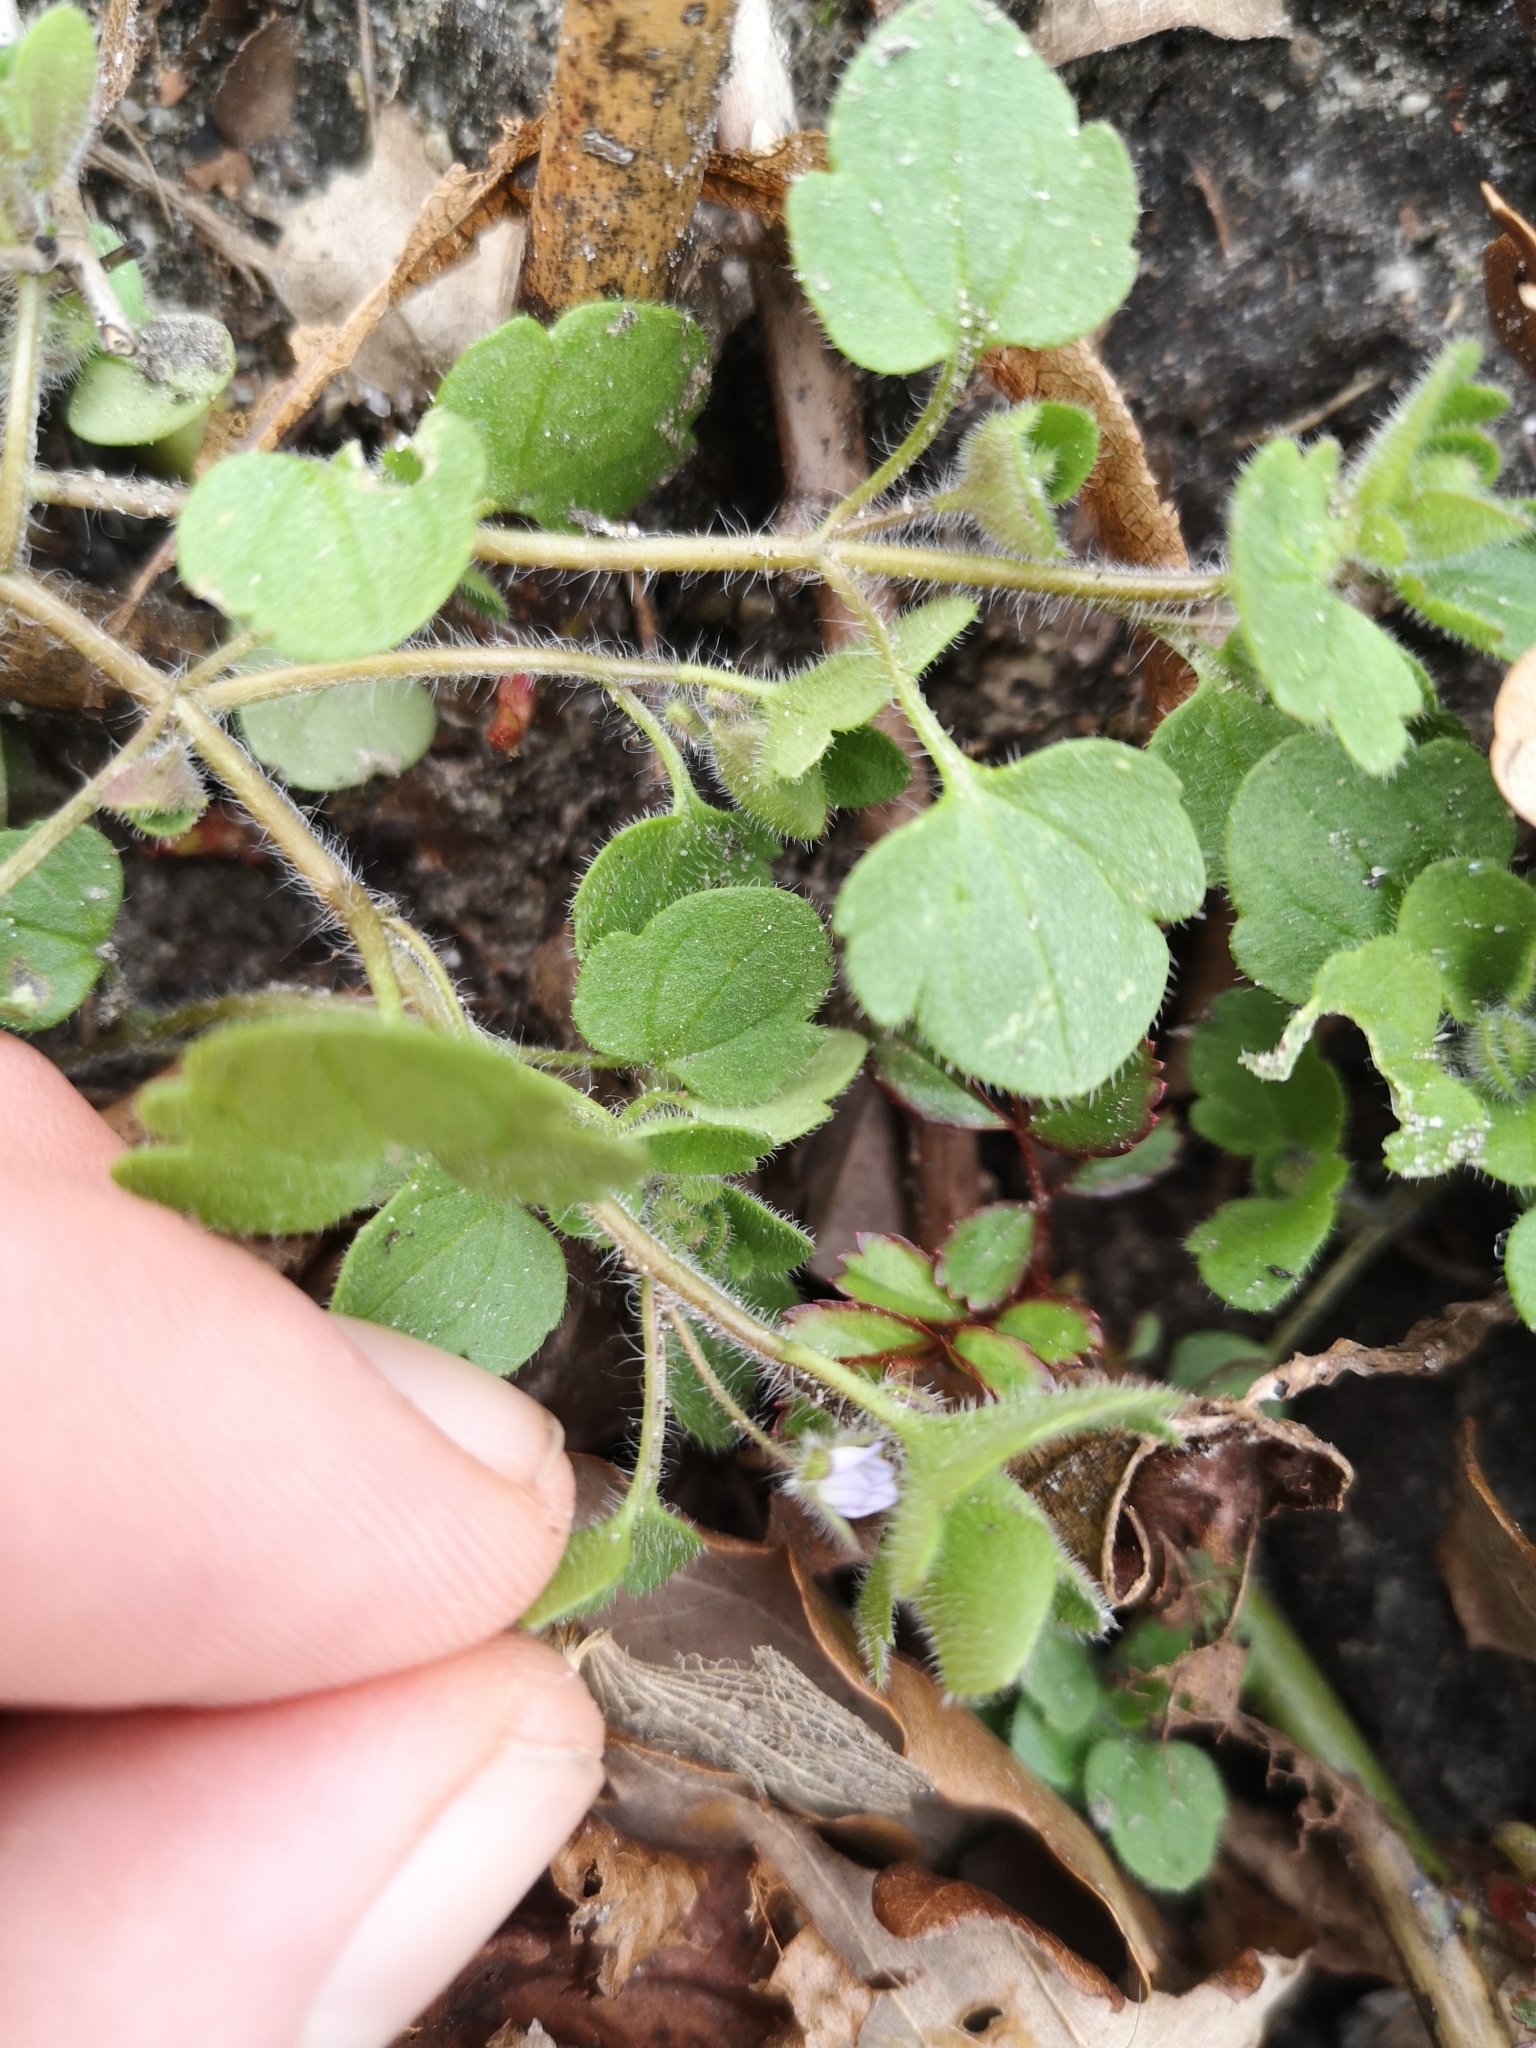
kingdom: Plantae
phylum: Tracheophyta
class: Magnoliopsida
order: Lamiales
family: Plantaginaceae
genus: Veronica
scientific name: Veronica sublobata
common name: False ivy-leaved speedwell
